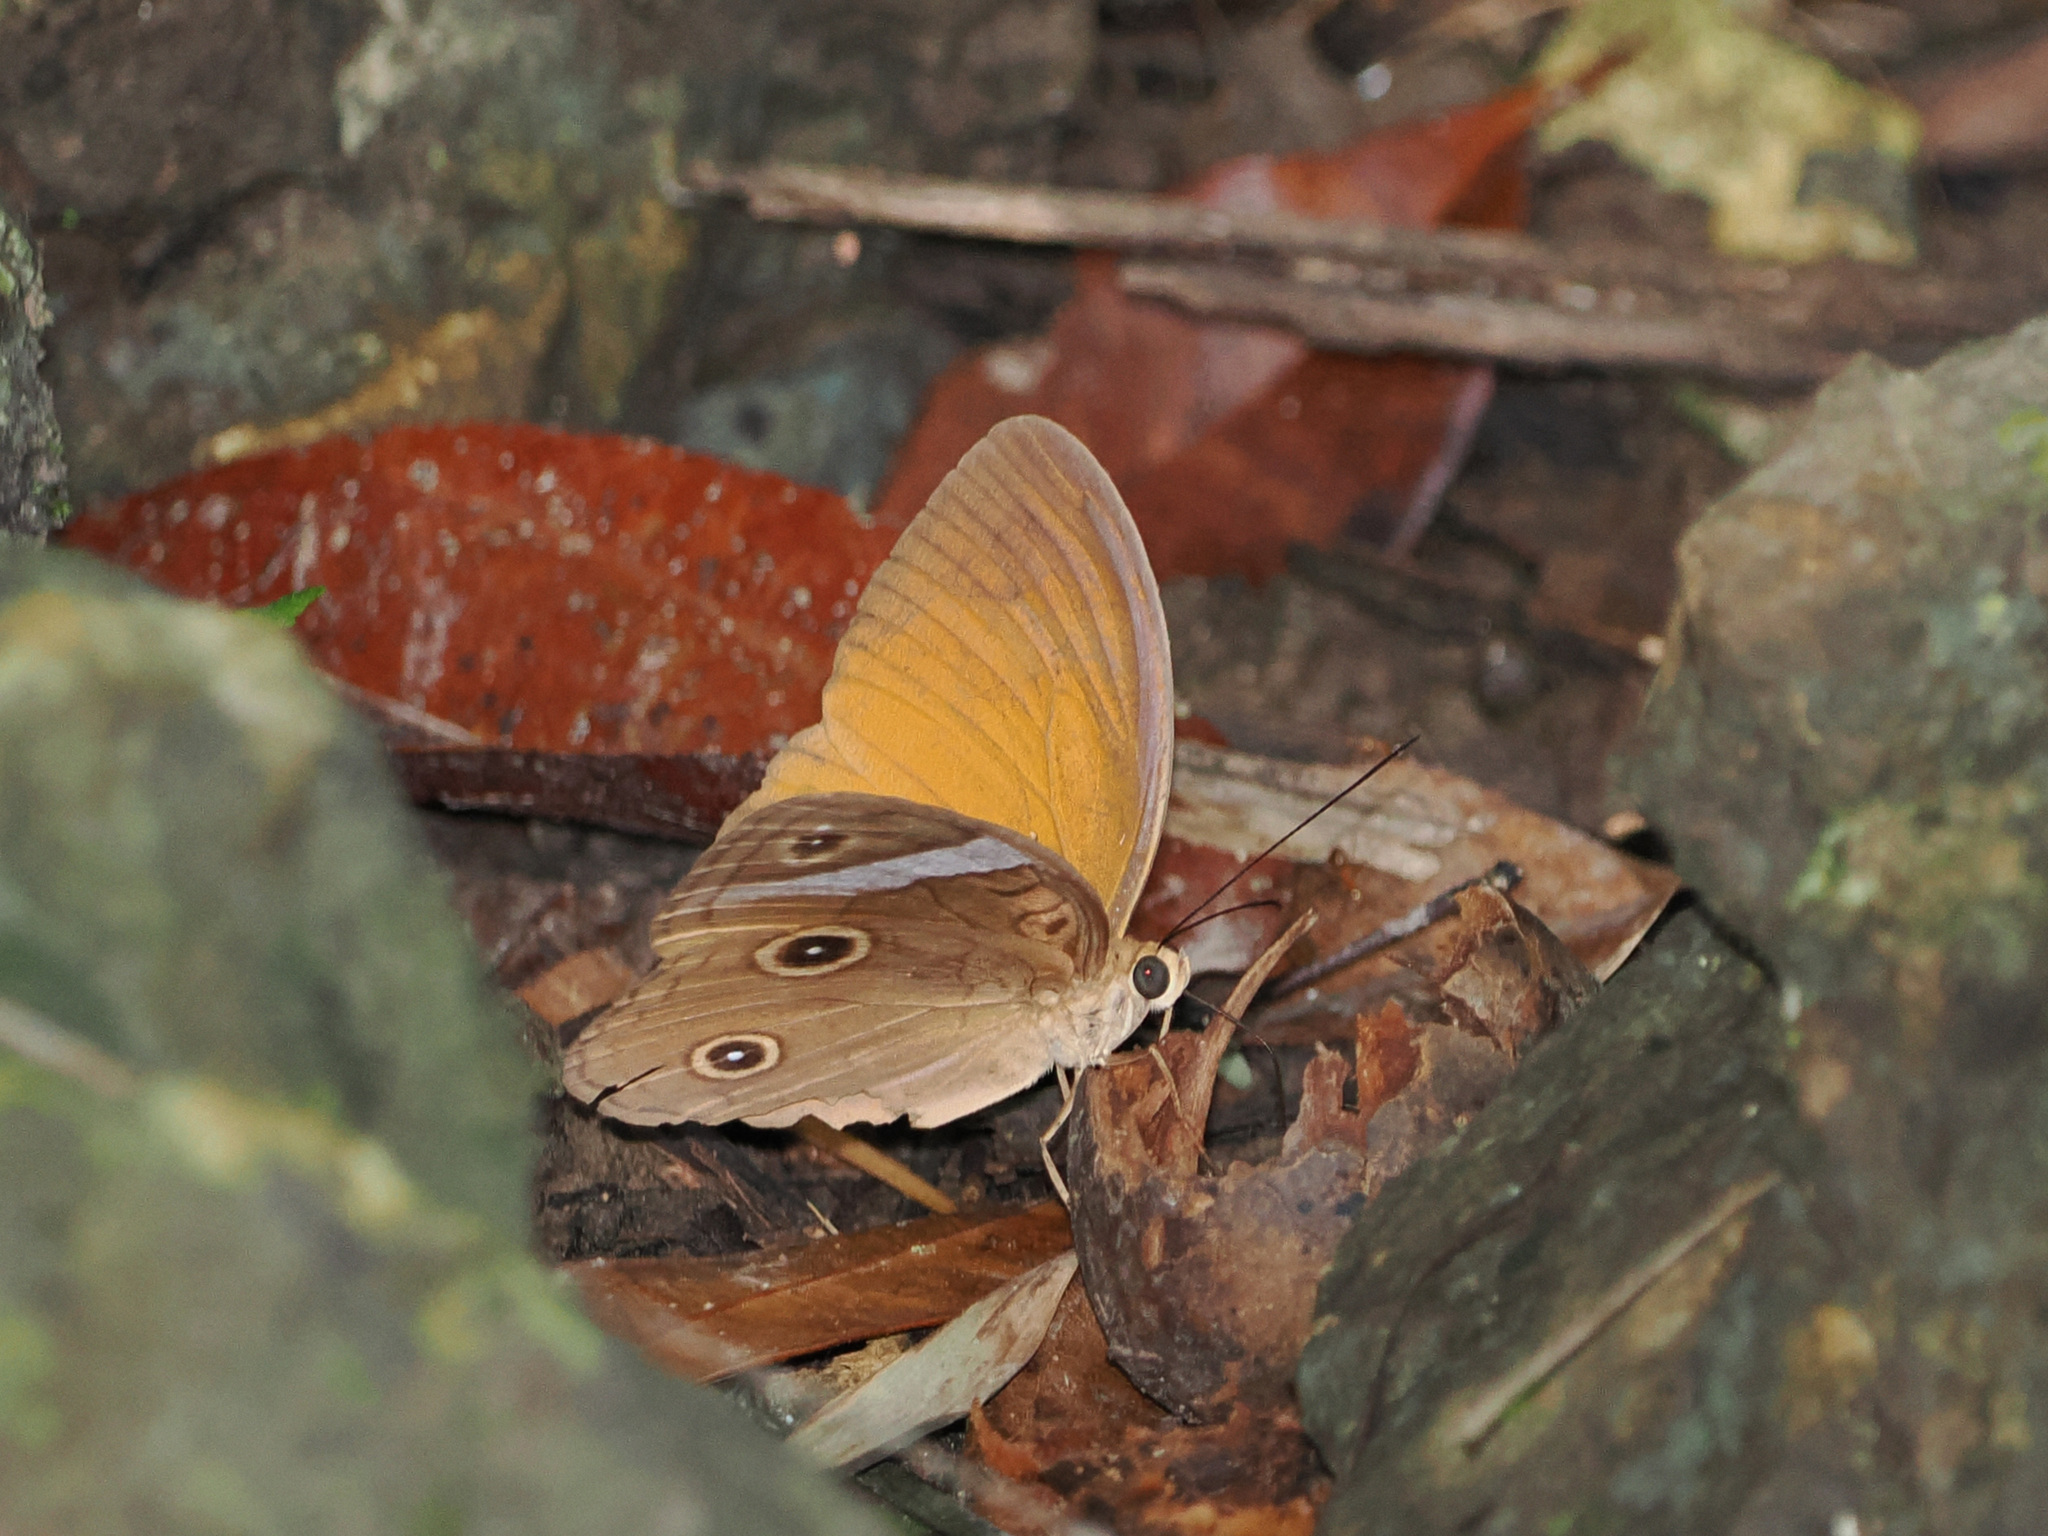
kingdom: Animalia
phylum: Arthropoda
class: Insecta
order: Lepidoptera
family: Nymphalidae
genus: Faunis
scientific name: Faunis menado
